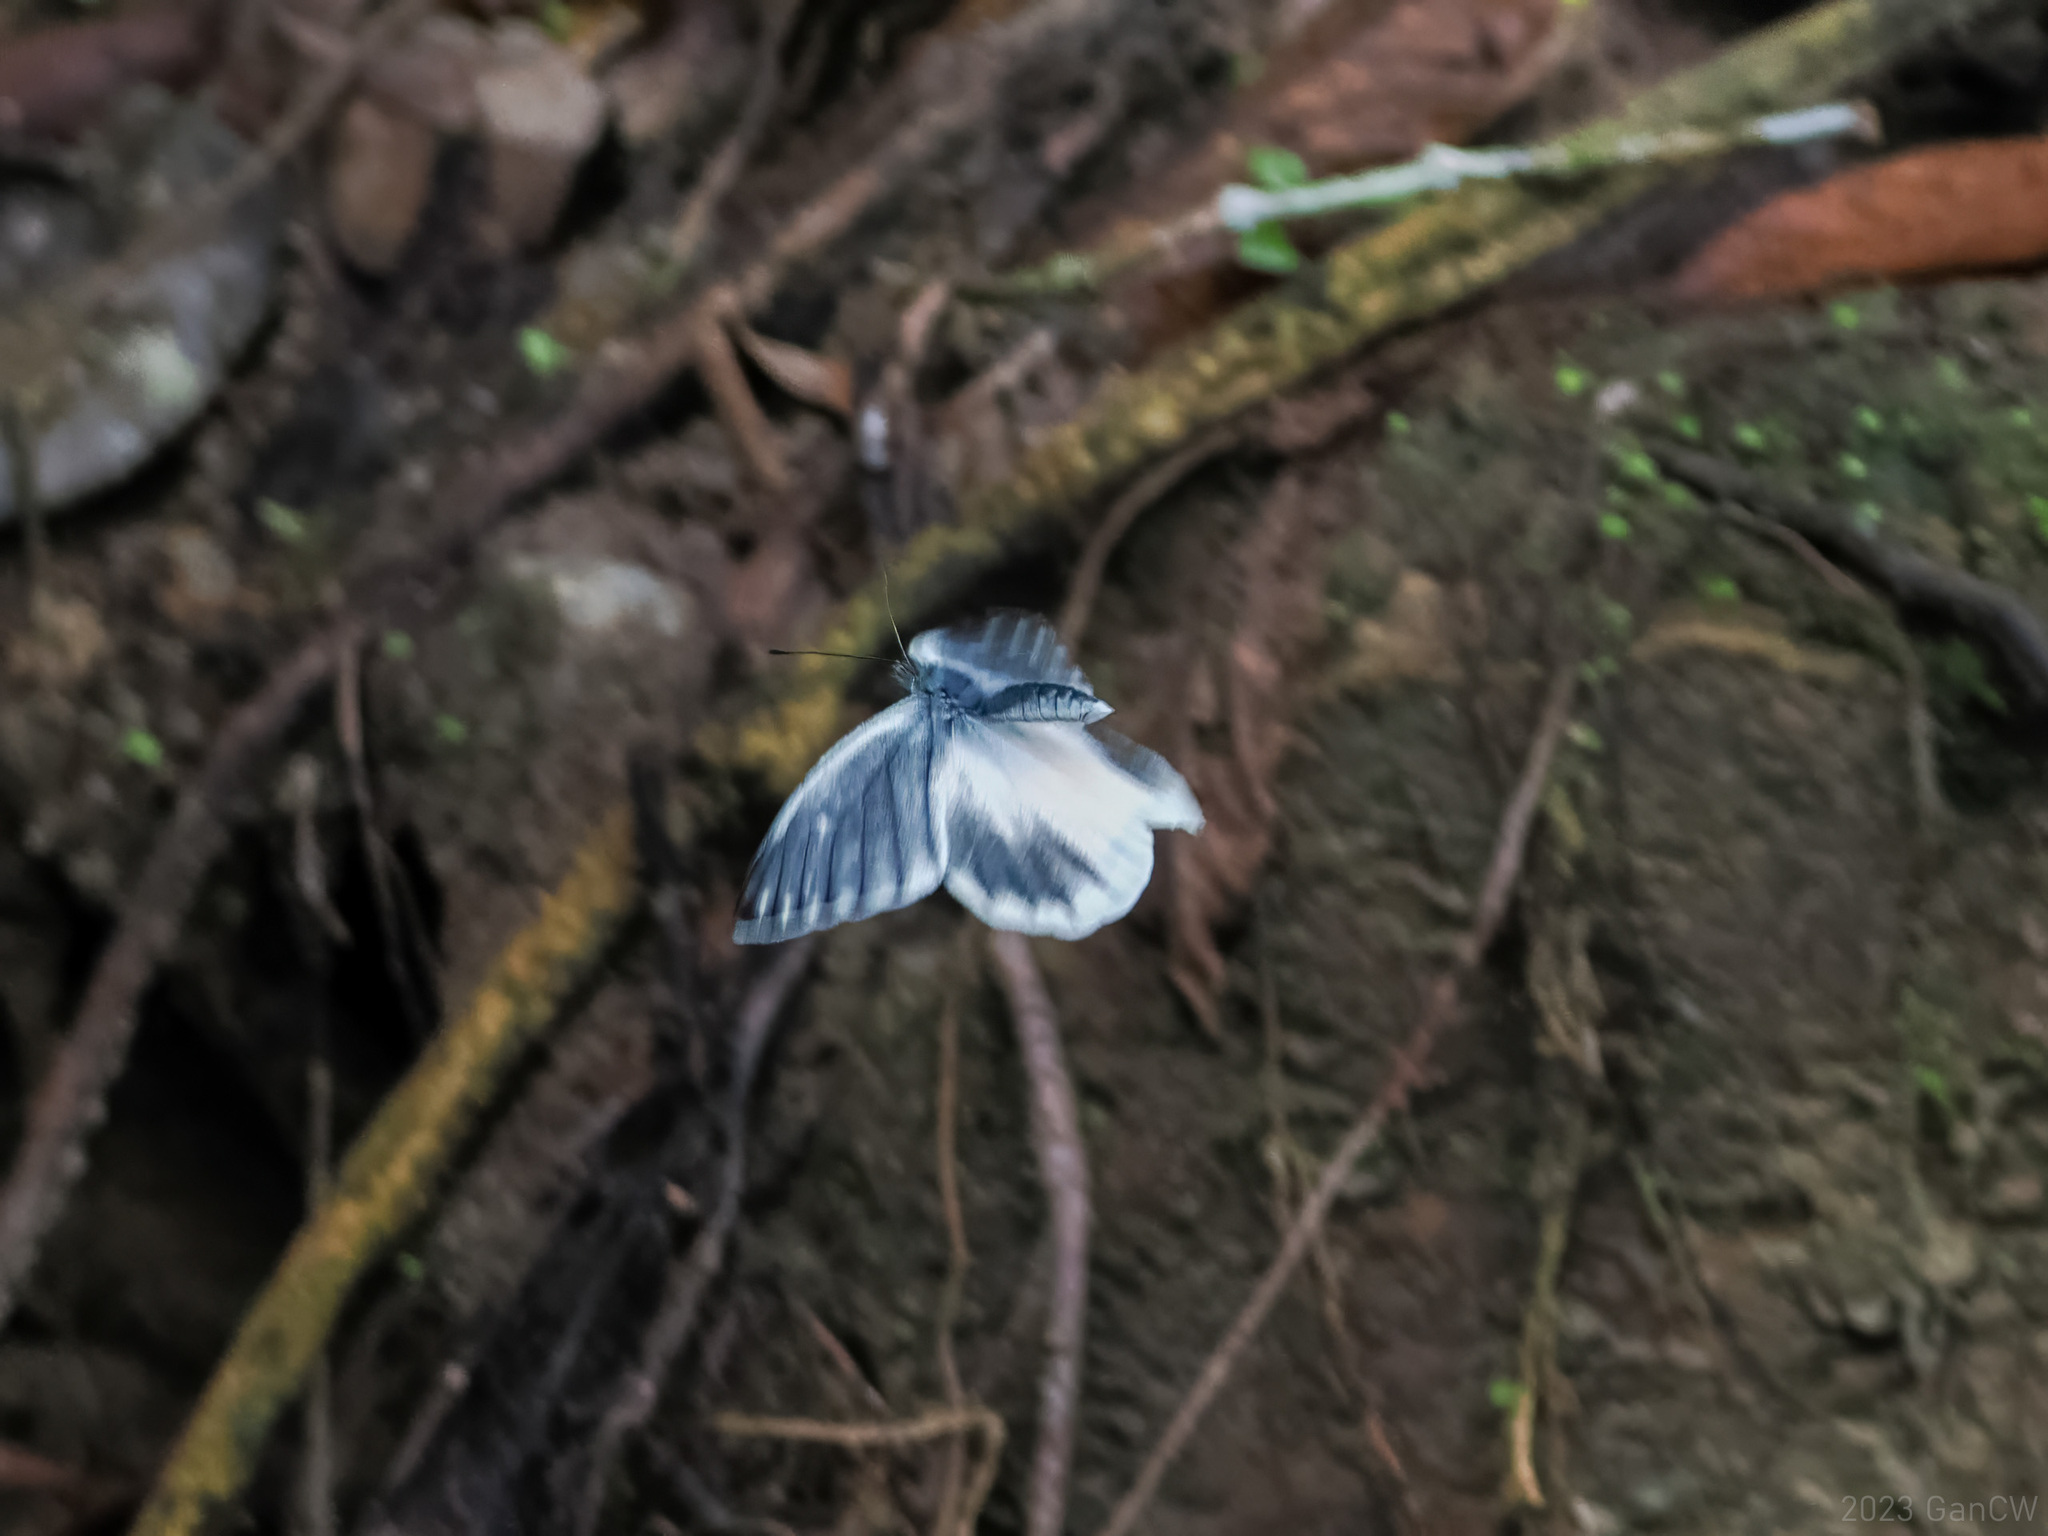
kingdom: Animalia
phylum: Arthropoda
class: Insecta
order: Lepidoptera
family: Pieridae
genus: Delias
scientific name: Delias melusina
